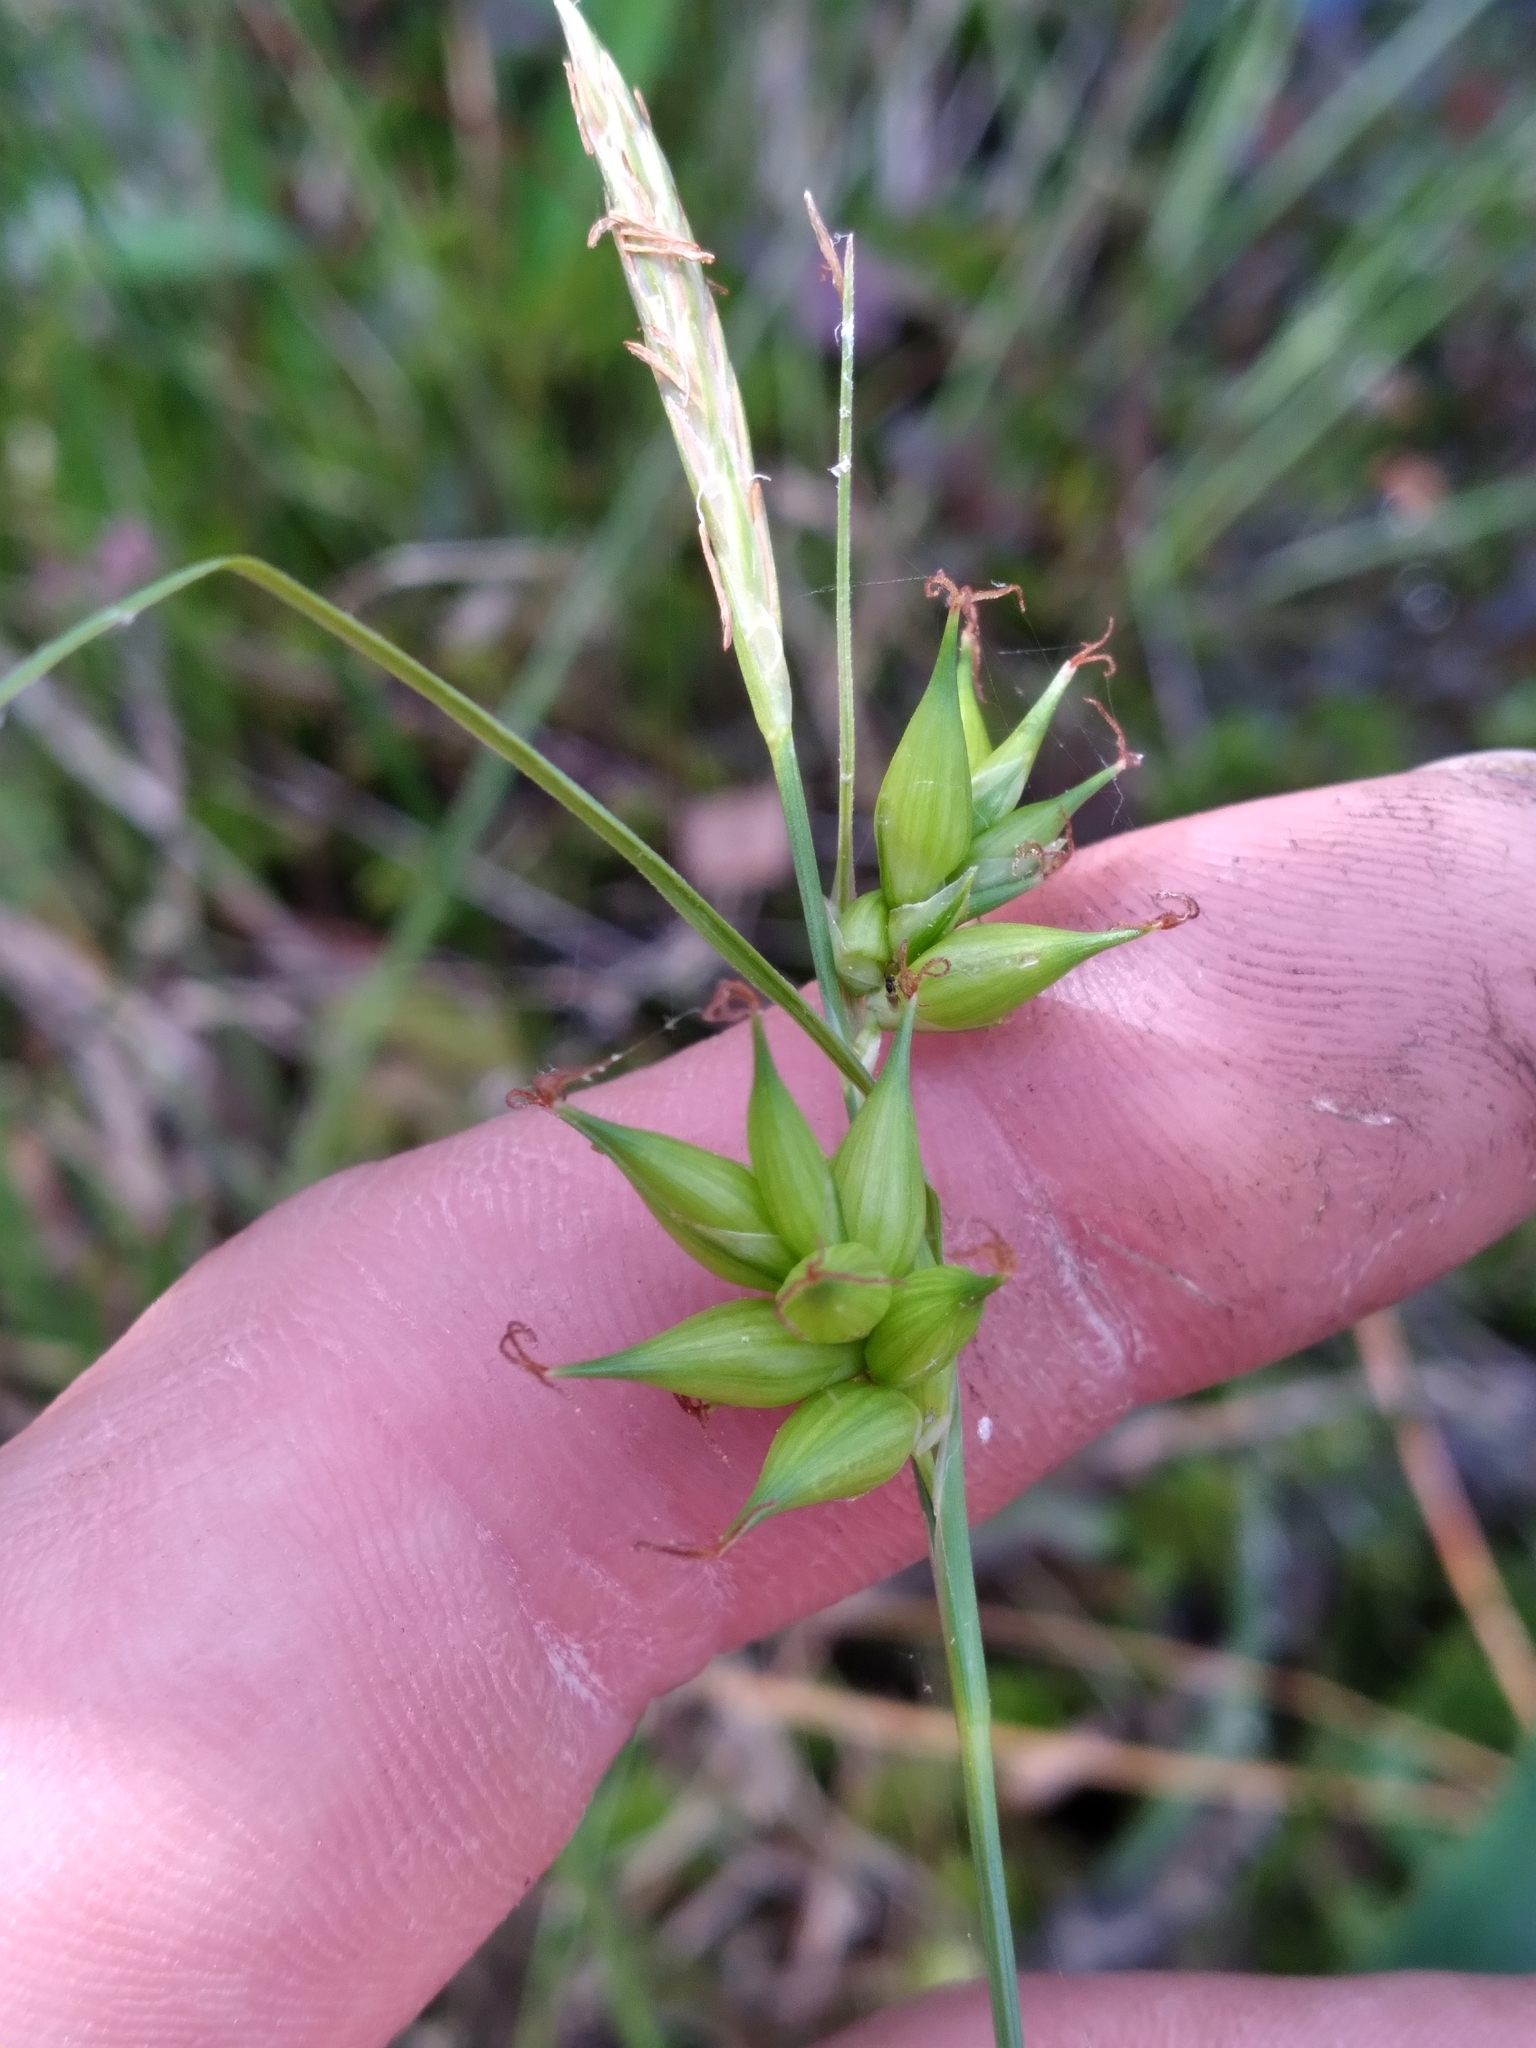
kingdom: Plantae
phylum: Tracheophyta
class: Liliopsida
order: Poales
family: Cyperaceae
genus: Carex
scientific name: Carex turgescens
